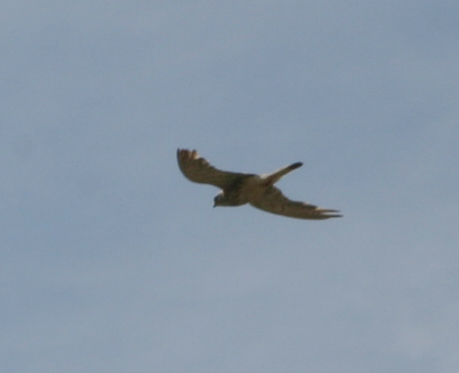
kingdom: Animalia
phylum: Chordata
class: Aves
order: Falconiformes
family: Falconidae
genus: Falco
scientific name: Falco tinnunculus
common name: Common kestrel
